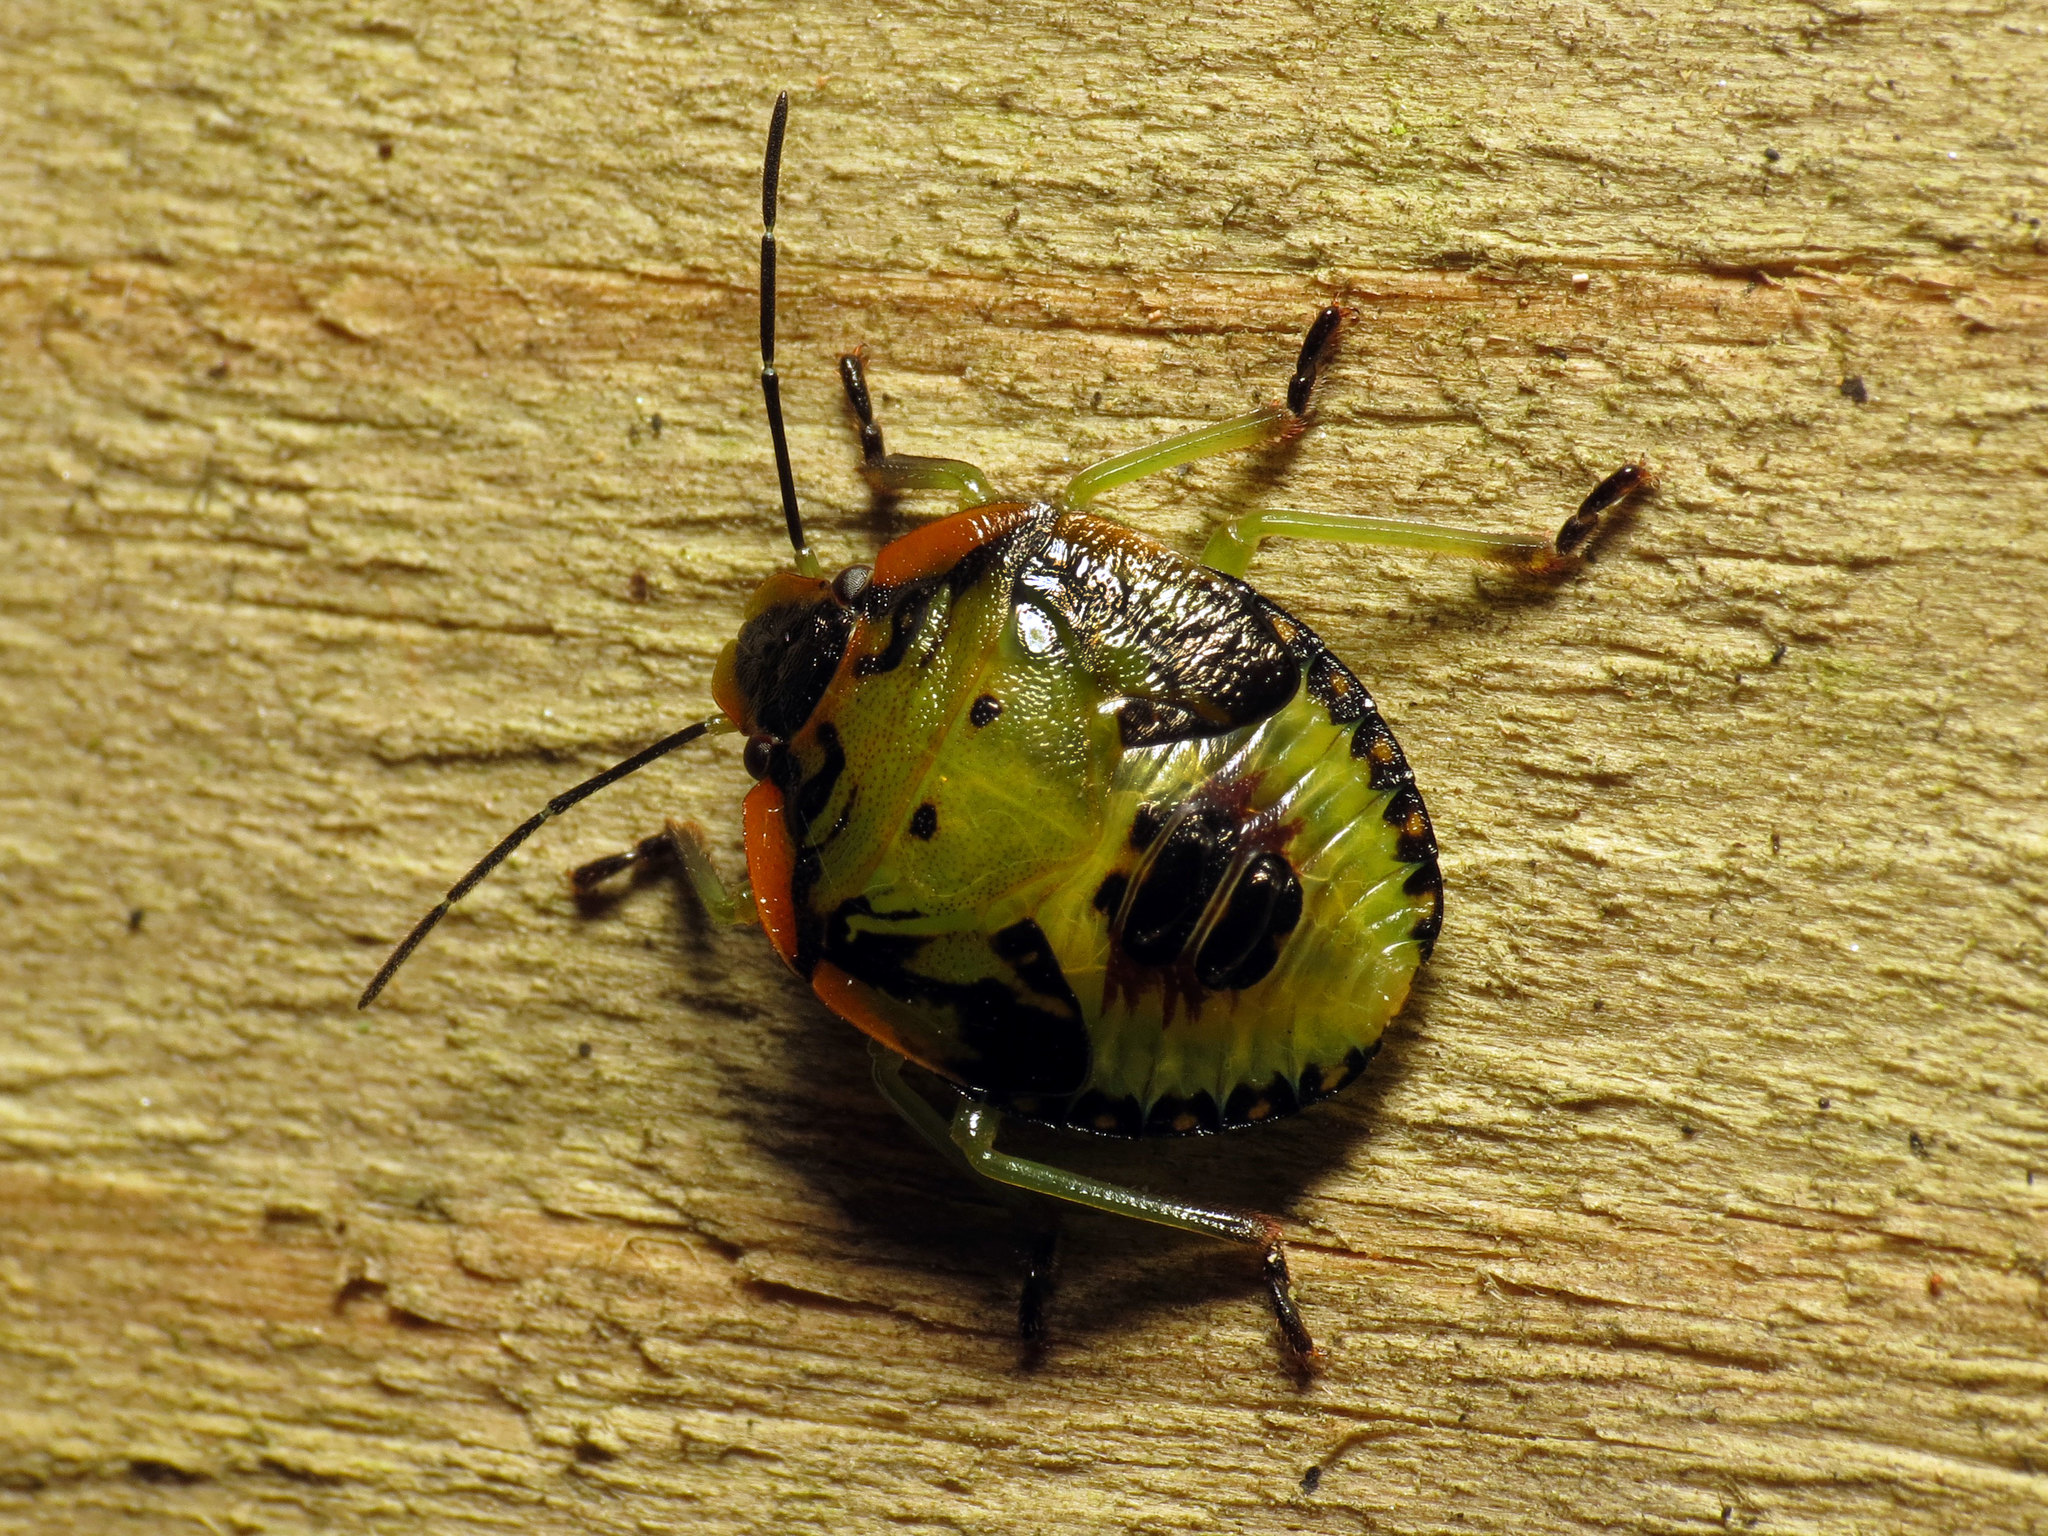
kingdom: Animalia
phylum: Arthropoda
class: Insecta
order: Hemiptera
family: Pentatomidae
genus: Chinavia
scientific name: Chinavia hilaris
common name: Green stink bug
